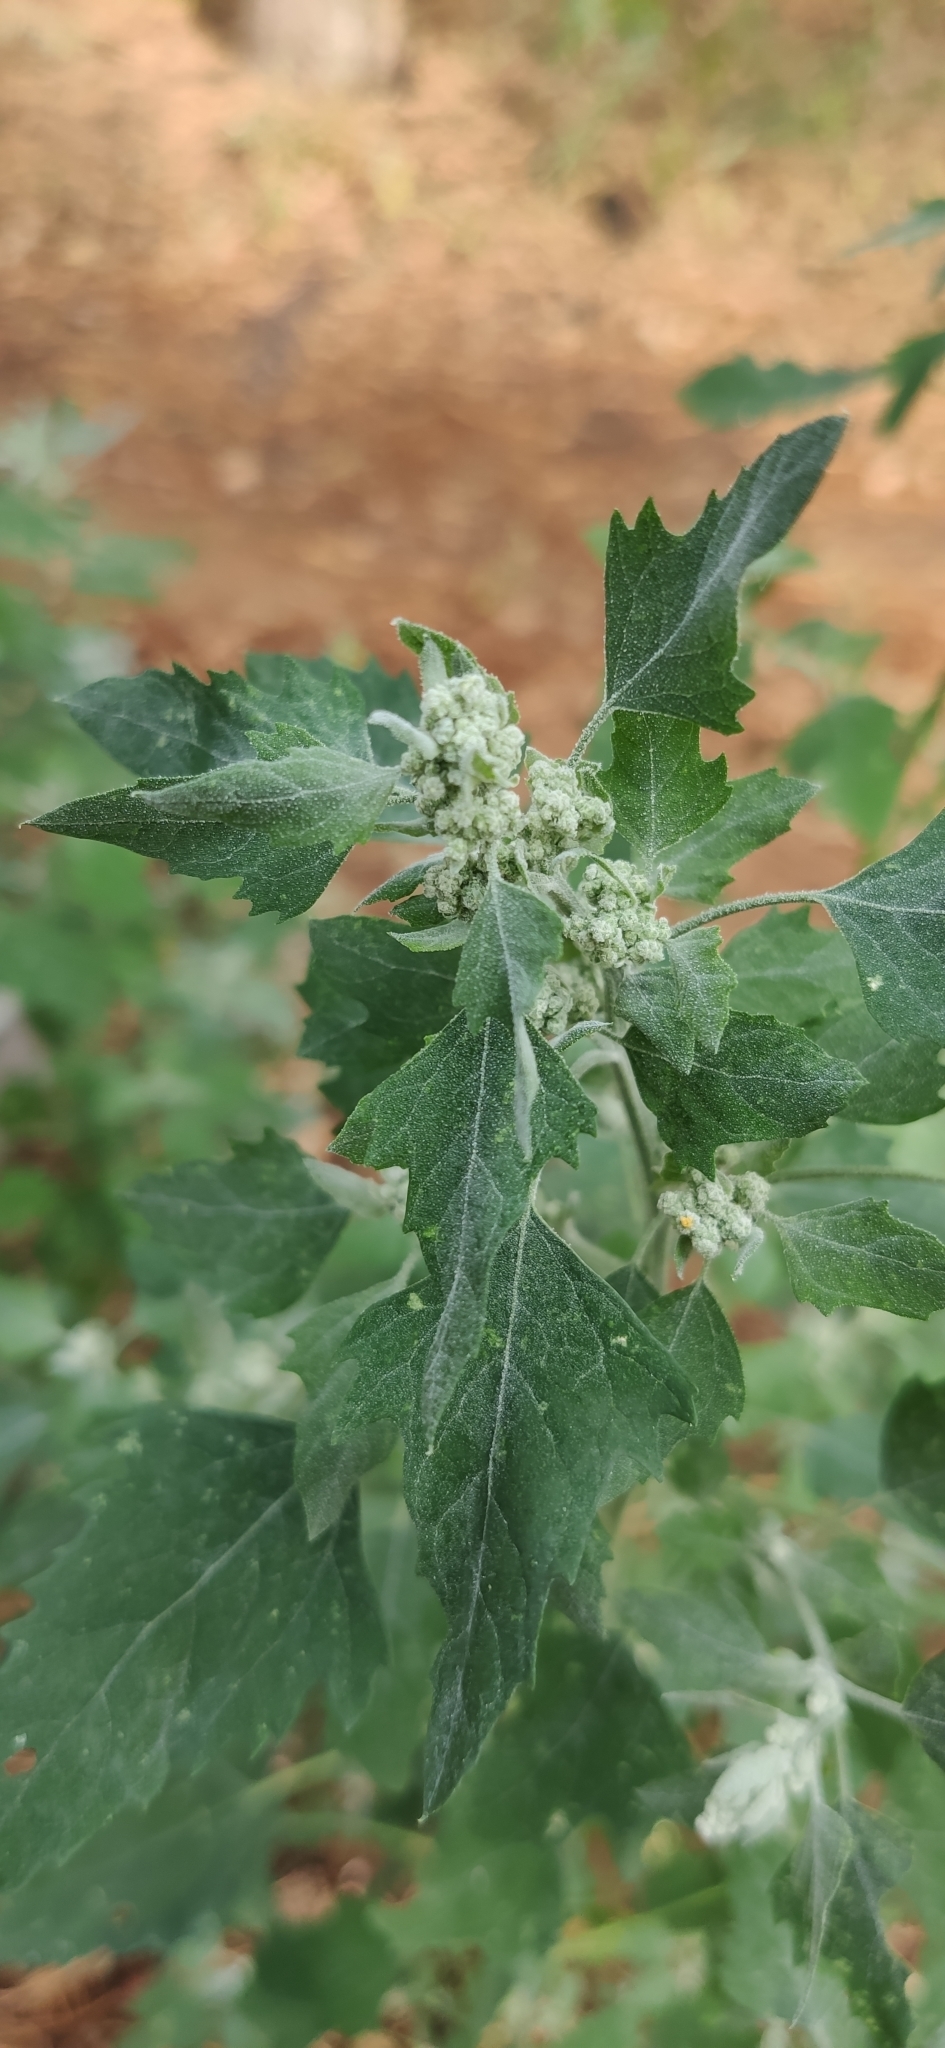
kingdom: Plantae
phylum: Tracheophyta
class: Magnoliopsida
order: Caryophyllales
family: Amaranthaceae
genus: Chenopodium
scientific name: Chenopodium album
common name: Fat-hen
